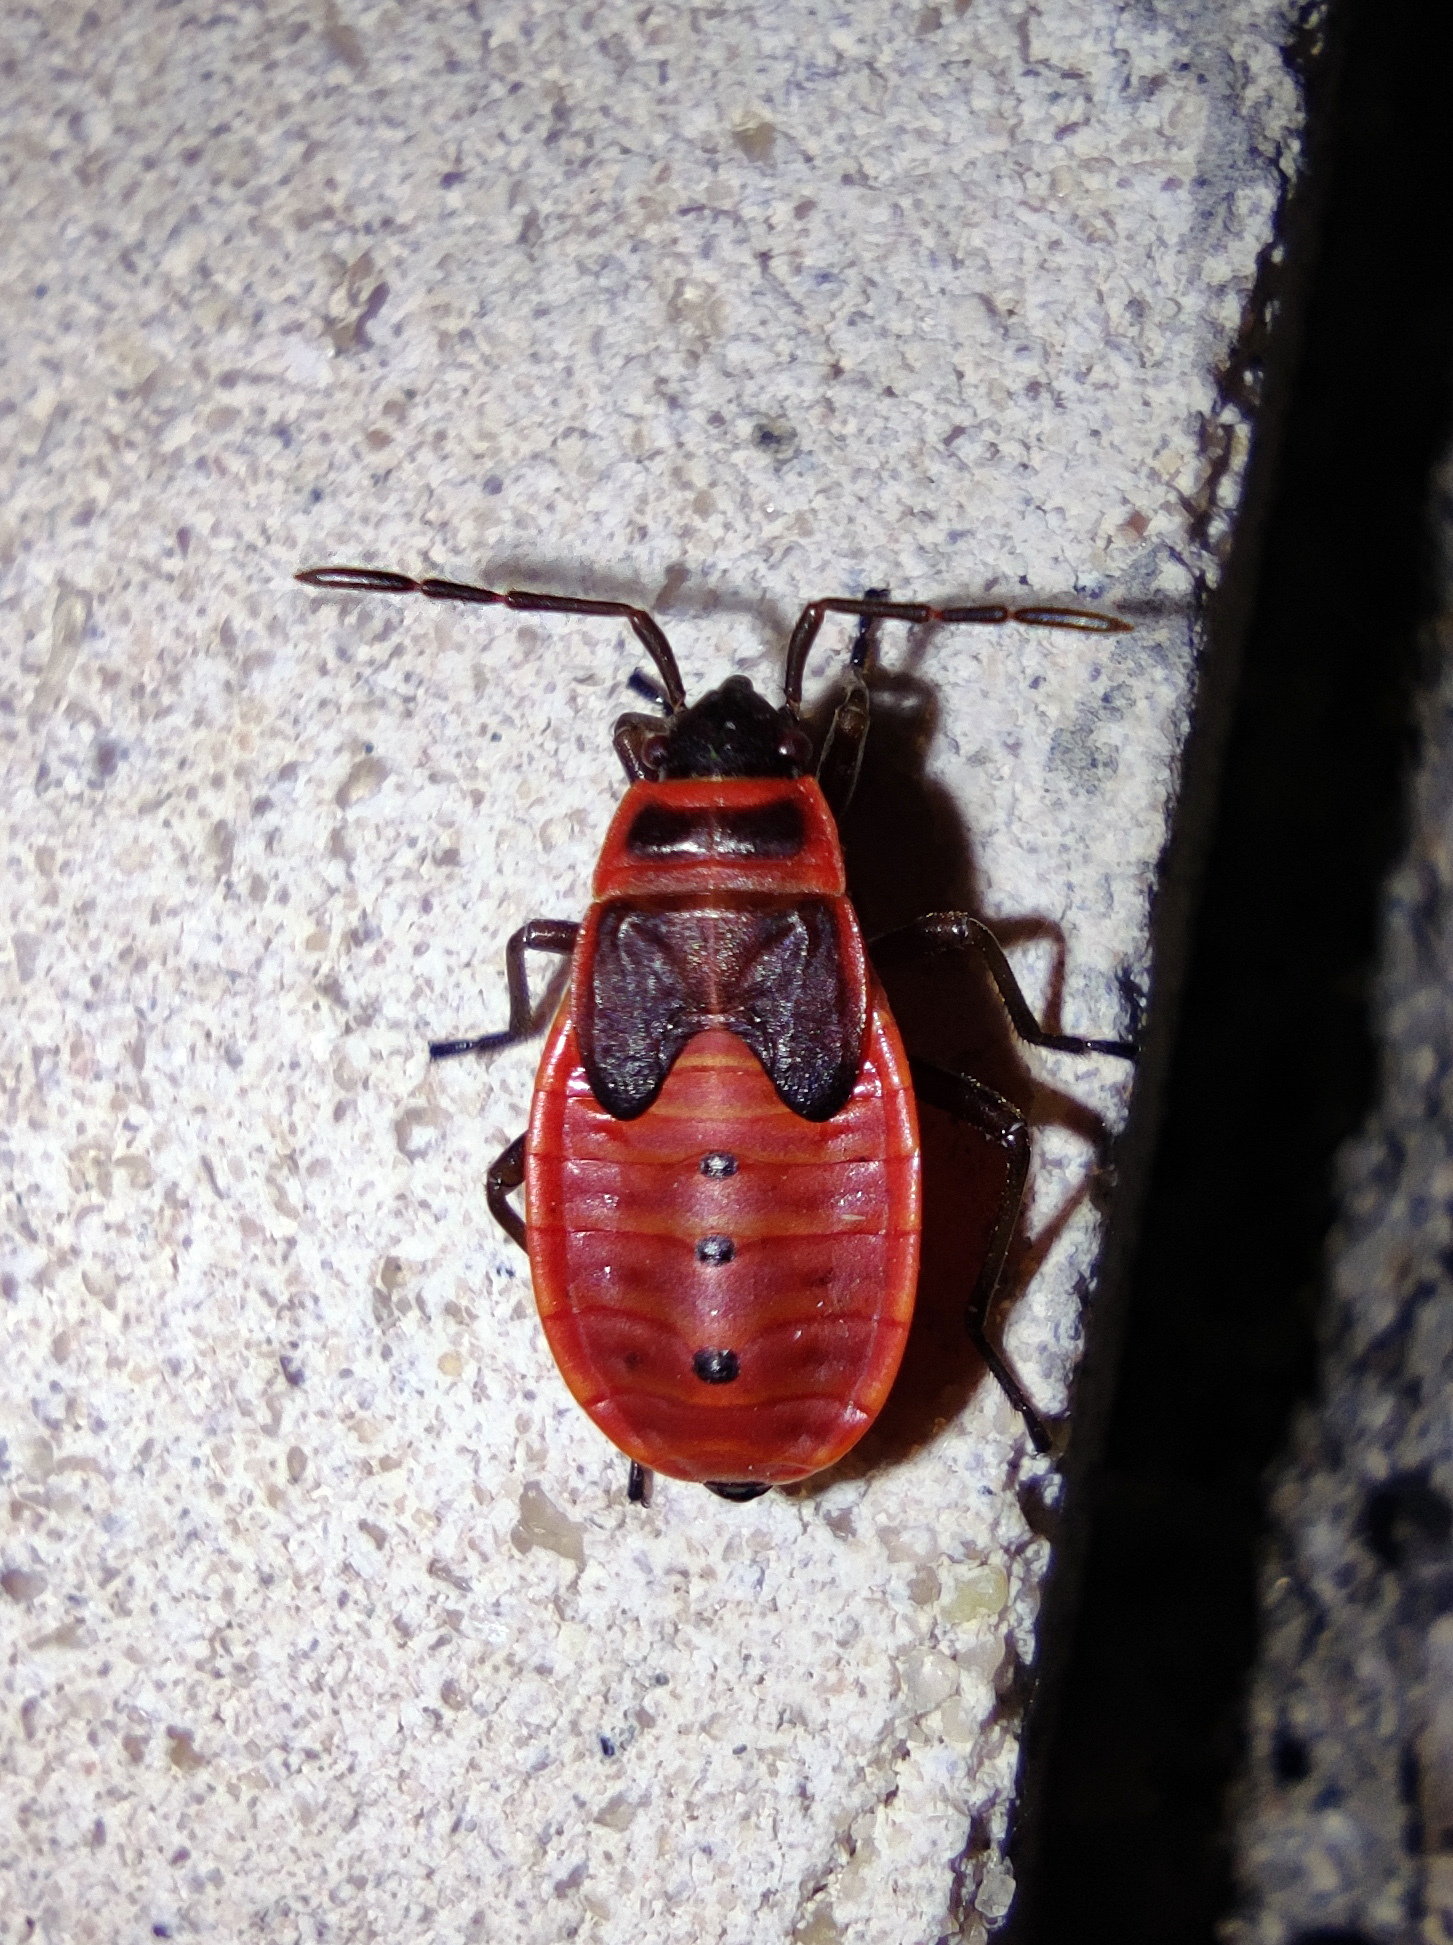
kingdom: Animalia
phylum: Arthropoda
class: Insecta
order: Hemiptera
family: Pyrrhocoridae
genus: Pyrrhocoris
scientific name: Pyrrhocoris apterus
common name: Firebug
